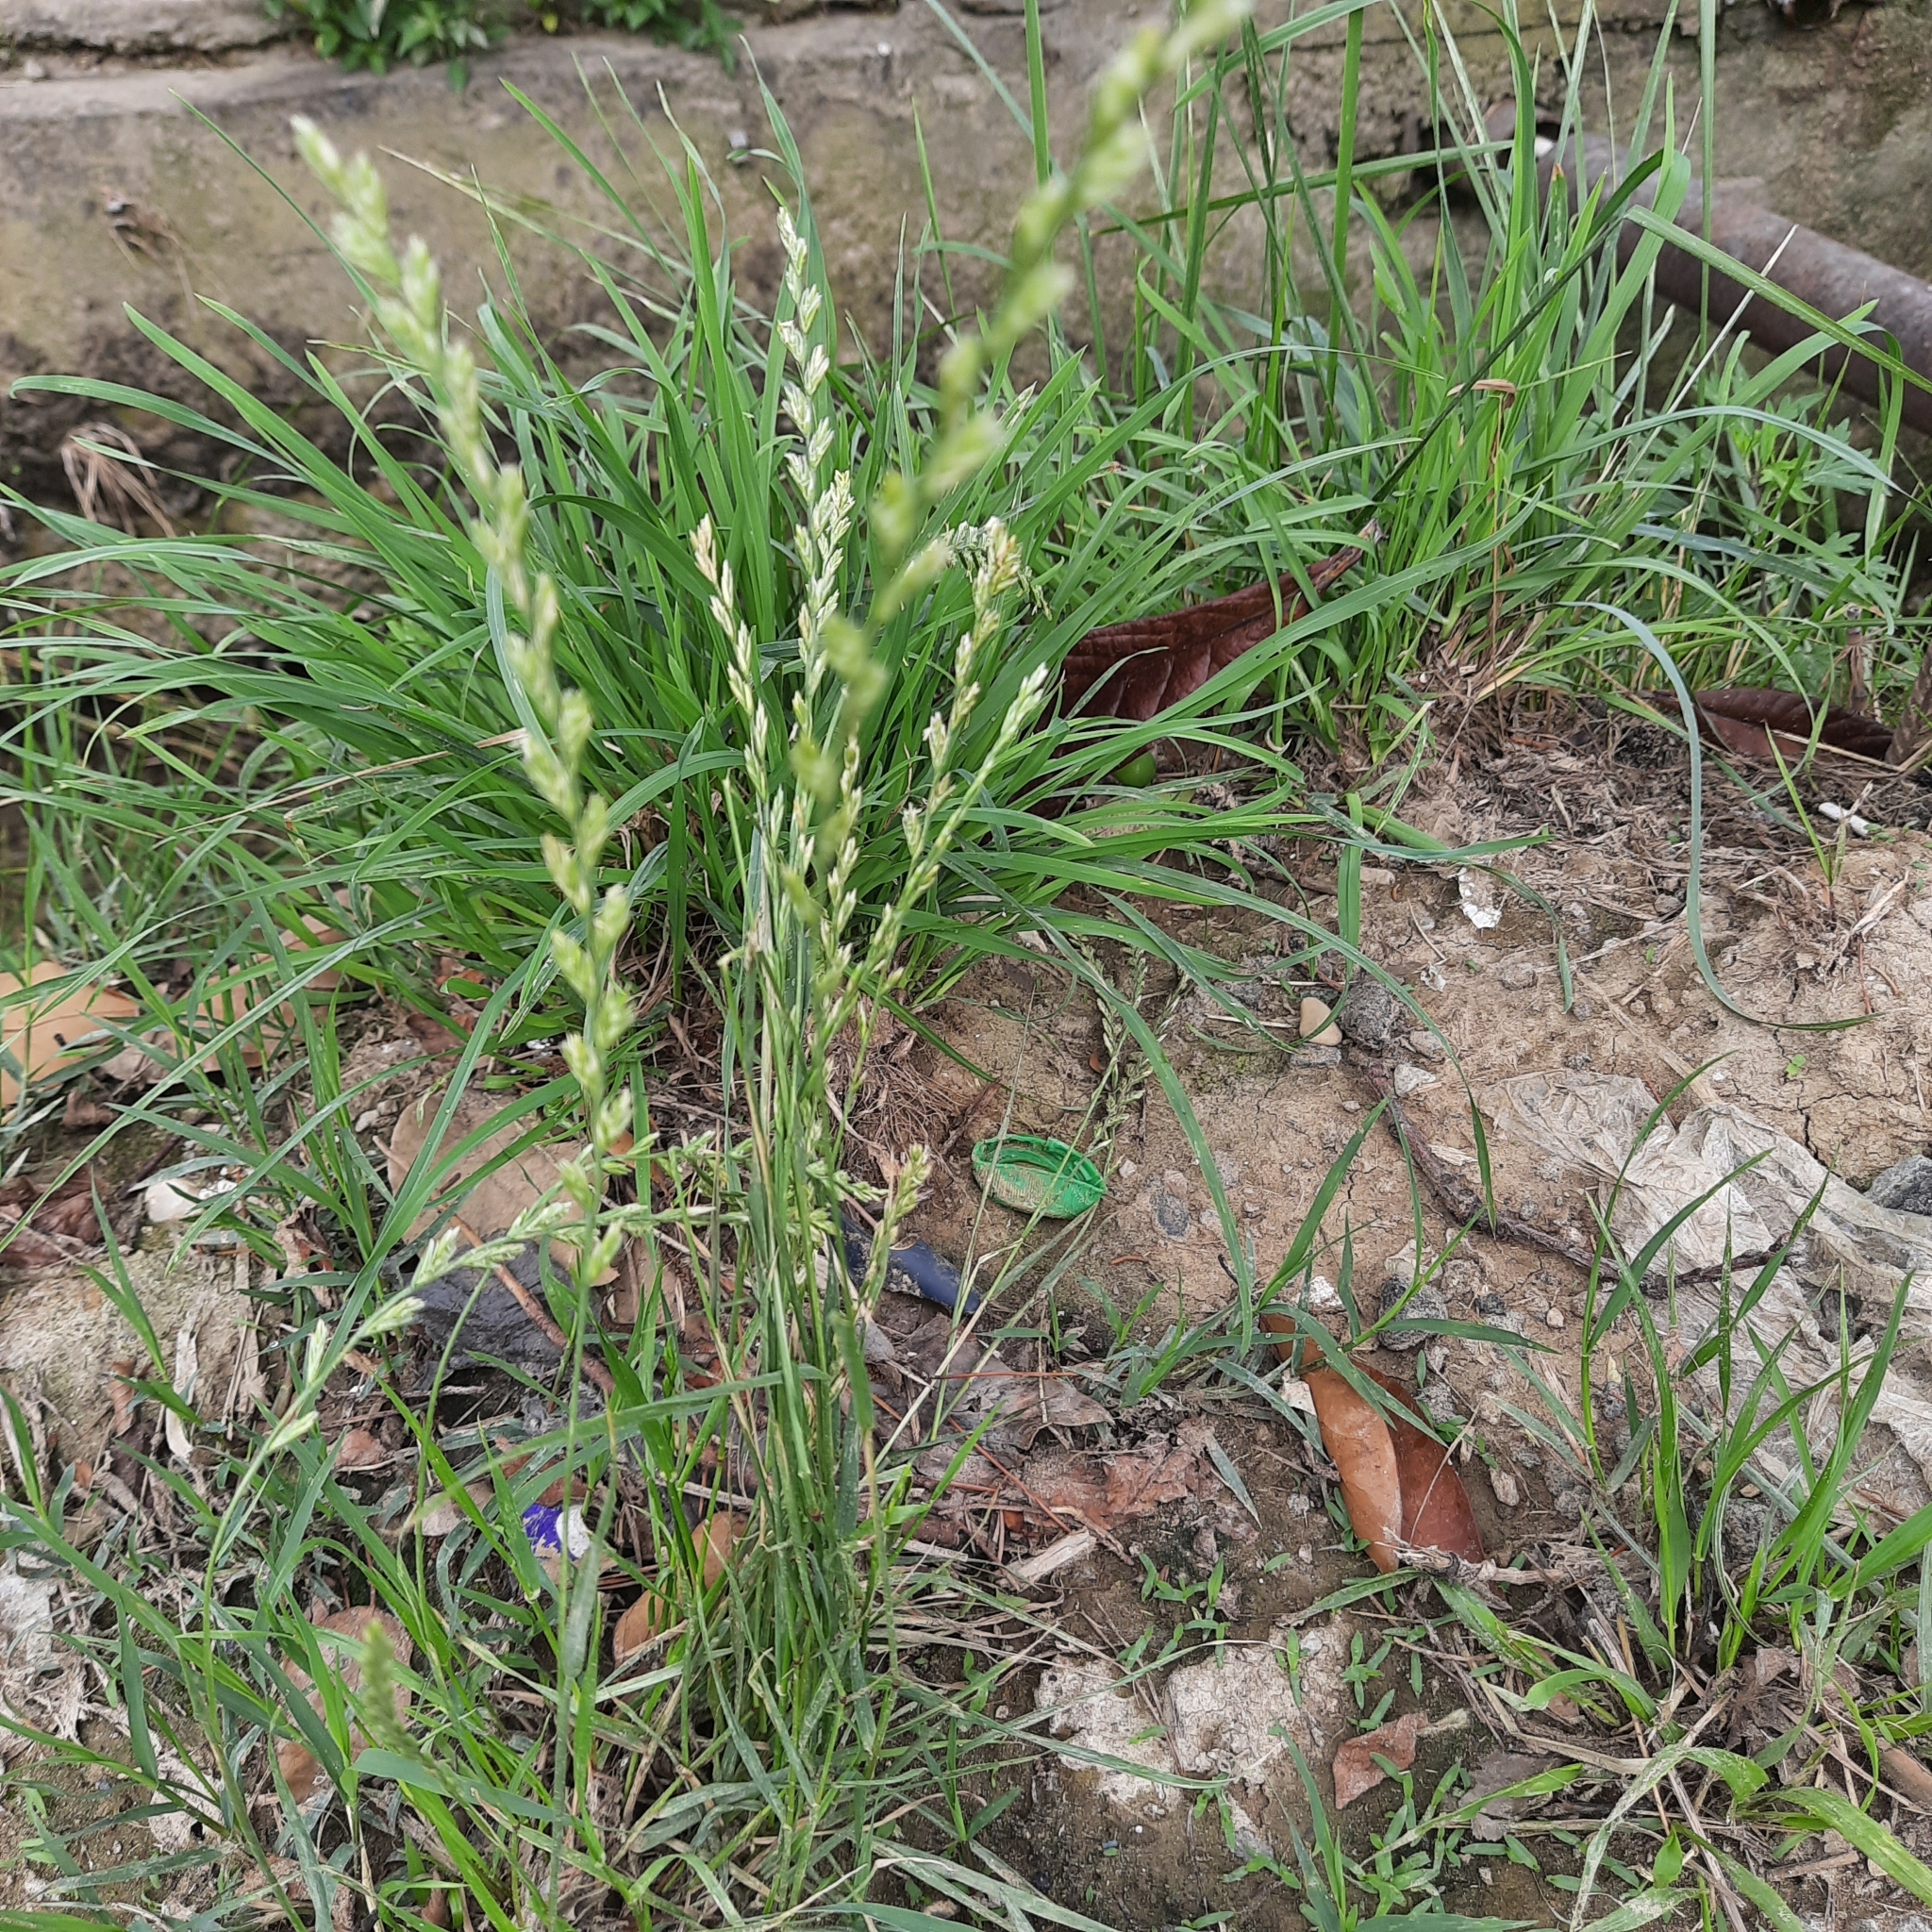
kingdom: Plantae
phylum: Tracheophyta
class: Liliopsida
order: Poales
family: Poaceae
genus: Lolium
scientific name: Lolium perenne
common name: Perennial ryegrass
